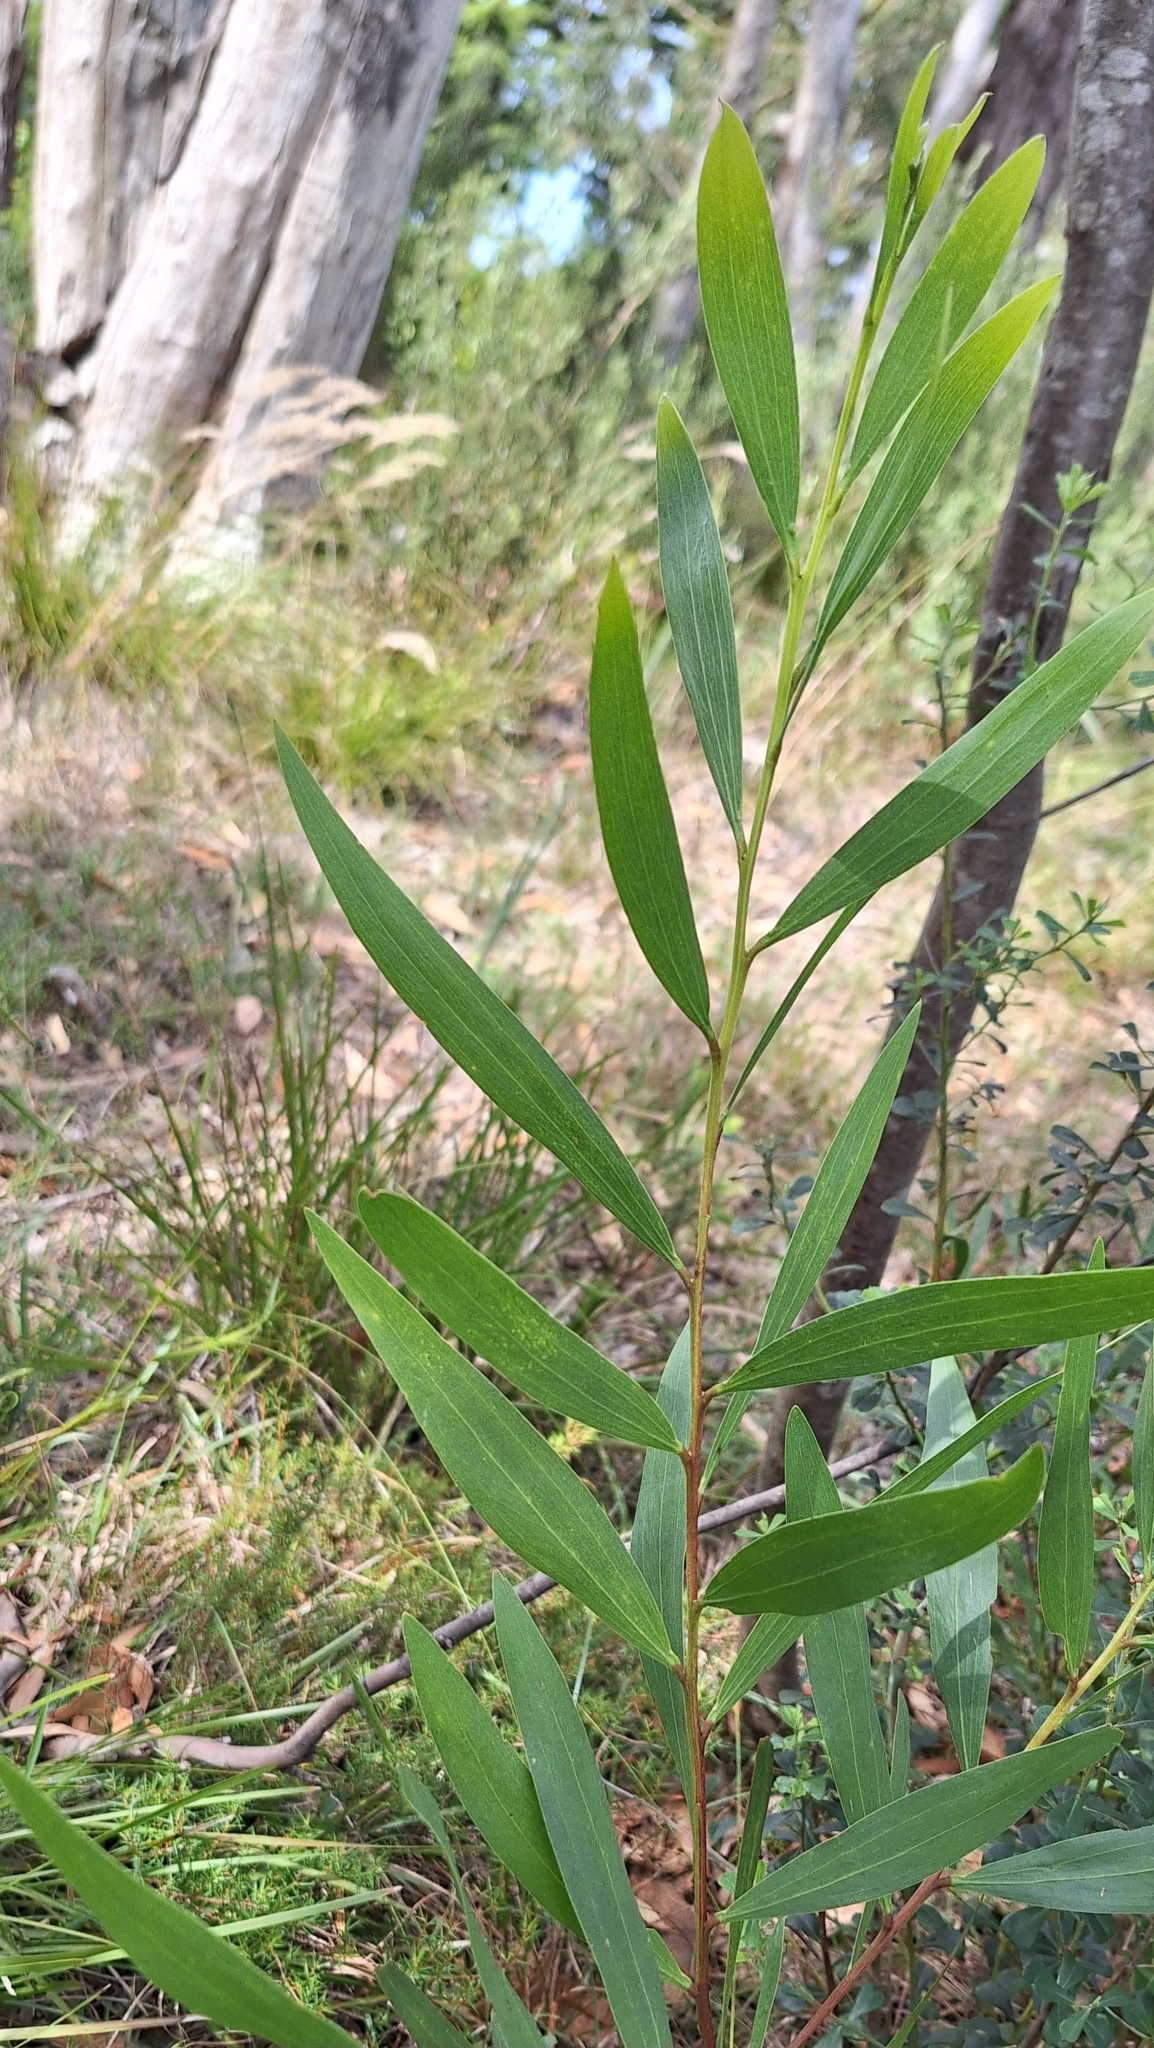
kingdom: Plantae
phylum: Tracheophyta
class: Magnoliopsida
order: Fabales
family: Fabaceae
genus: Acacia
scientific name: Acacia longifolia
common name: Sydney golden wattle
